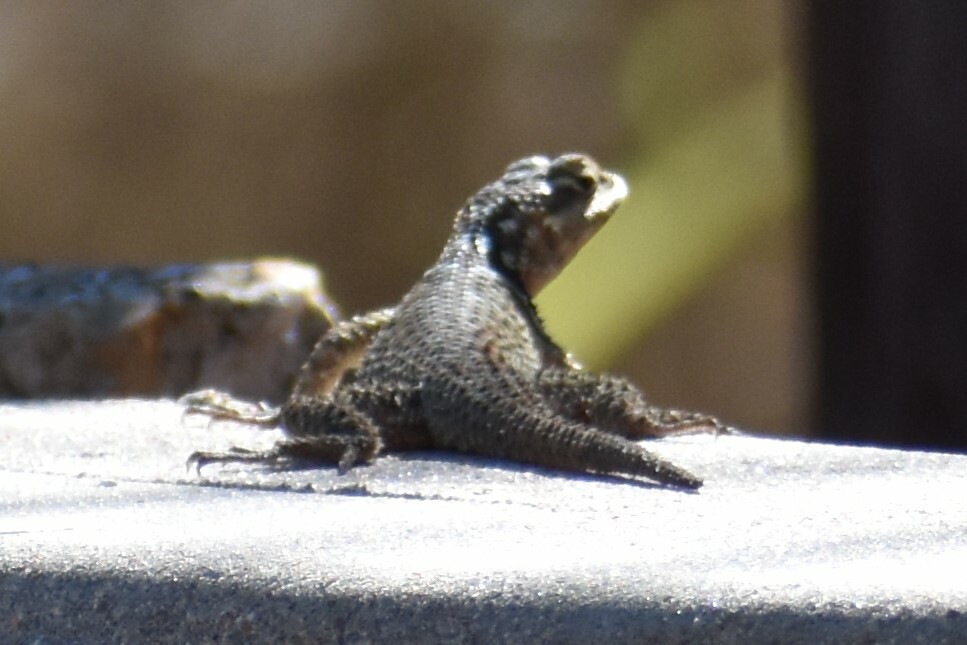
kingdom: Animalia
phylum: Chordata
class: Squamata
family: Phrynosomatidae
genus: Sceloporus
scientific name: Sceloporus cyanogenys
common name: Blue spiny lizard
